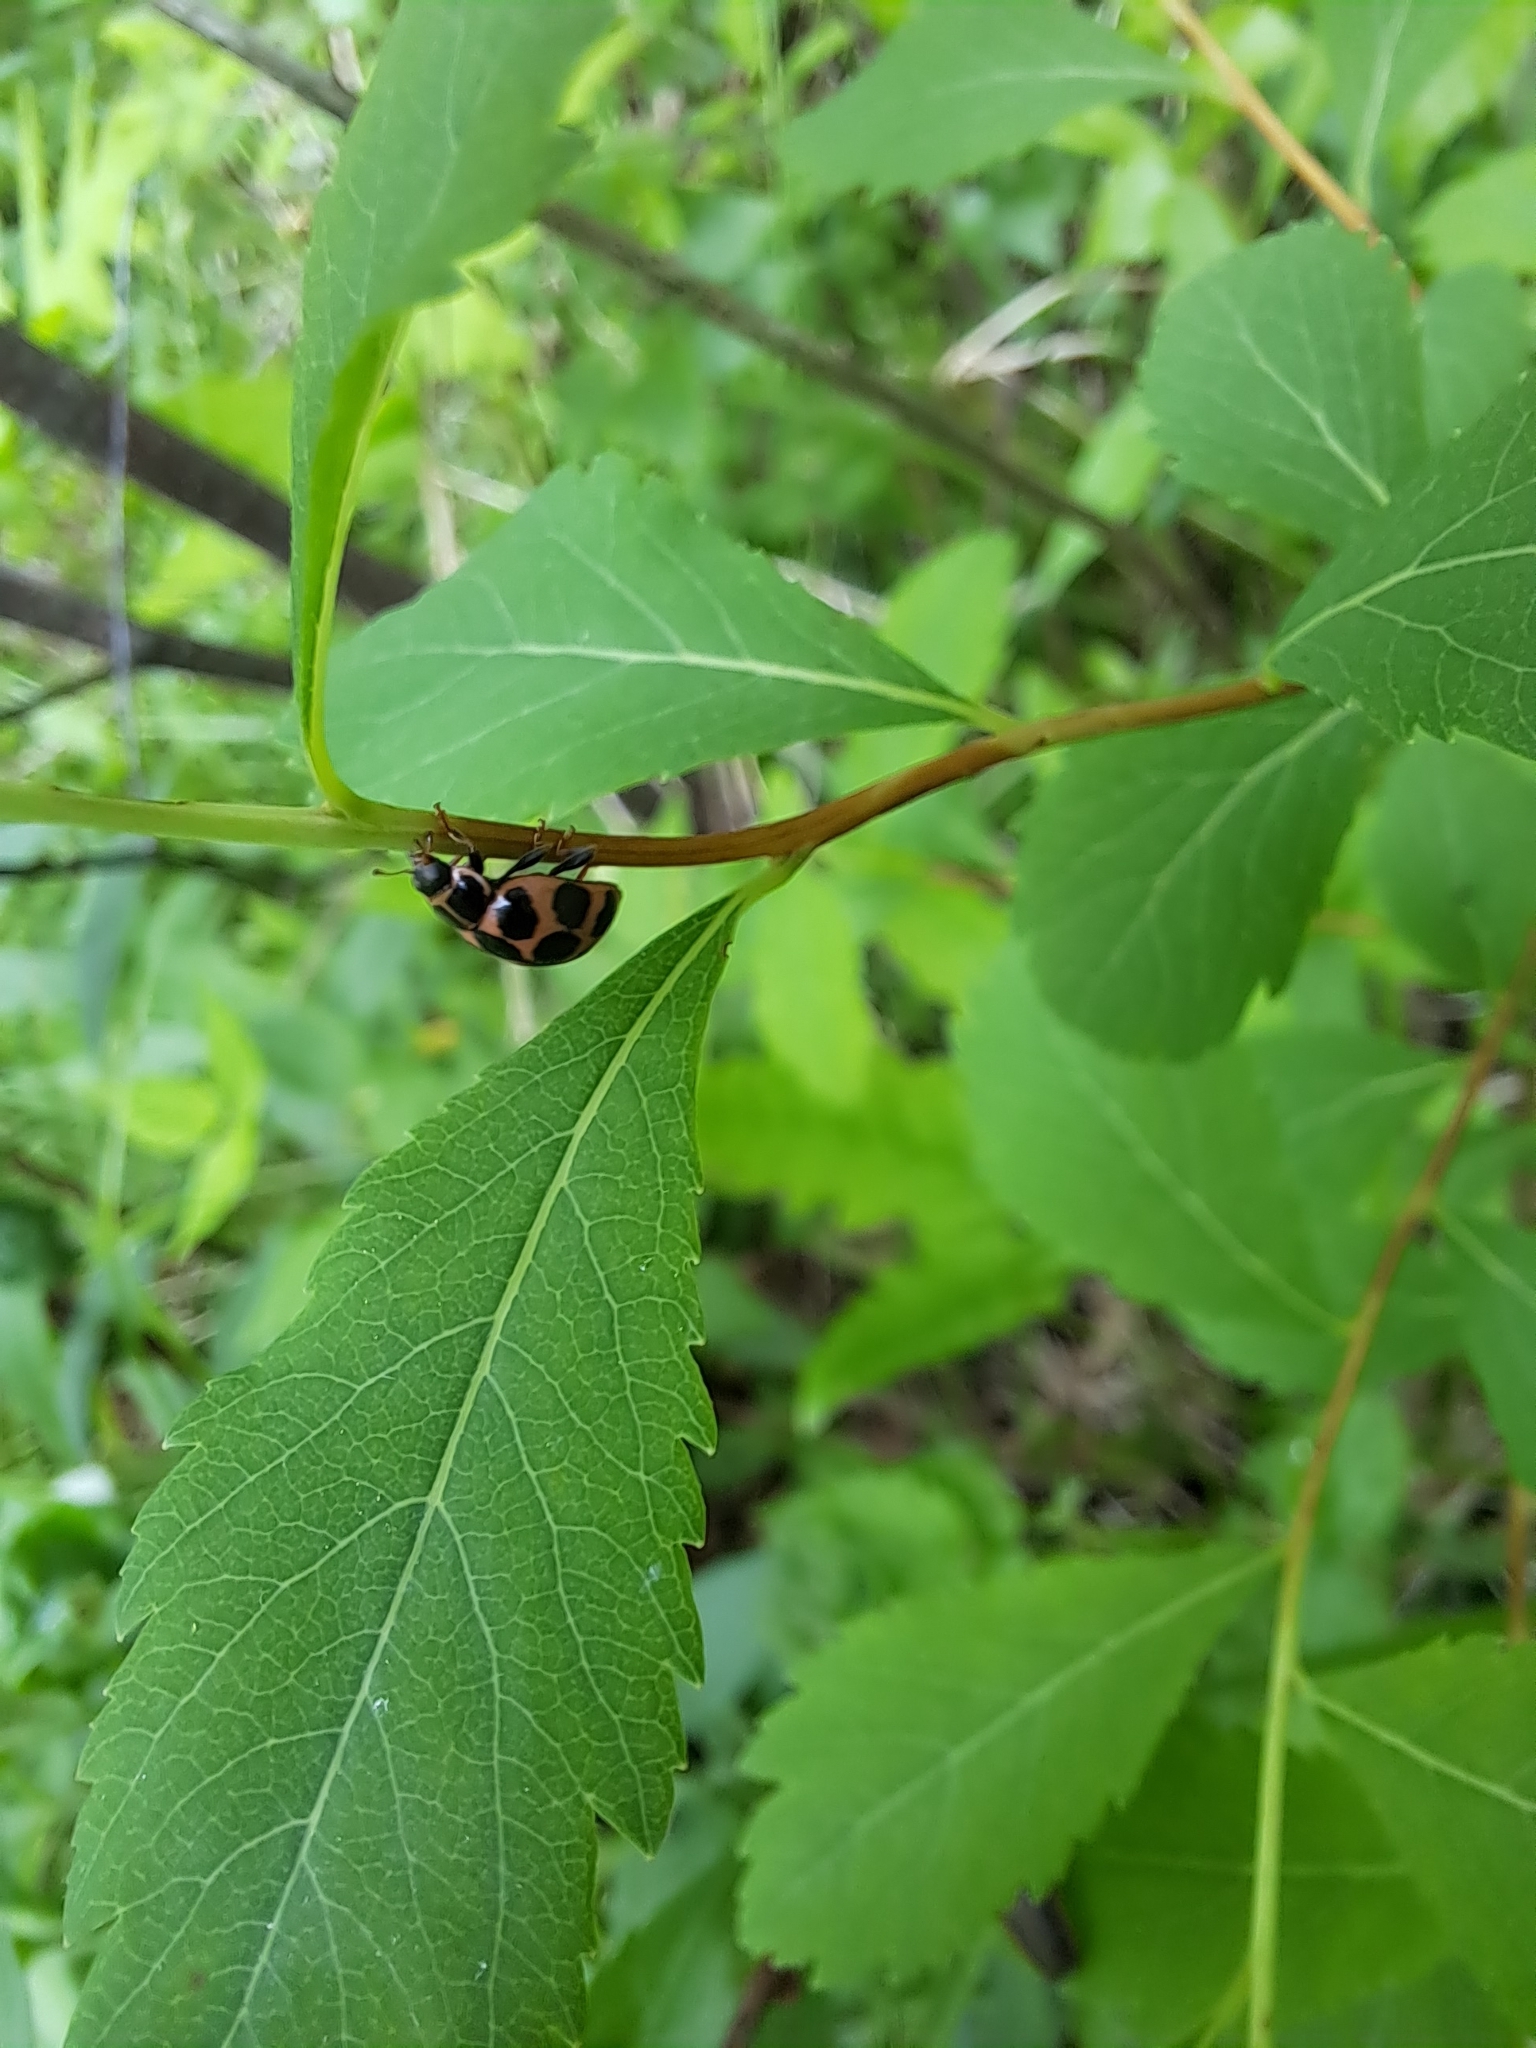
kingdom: Animalia
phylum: Arthropoda
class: Insecta
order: Coleoptera
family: Coccinellidae
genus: Calvia
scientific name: Calvia quatuordecimguttata
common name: Cream-spot ladybird
